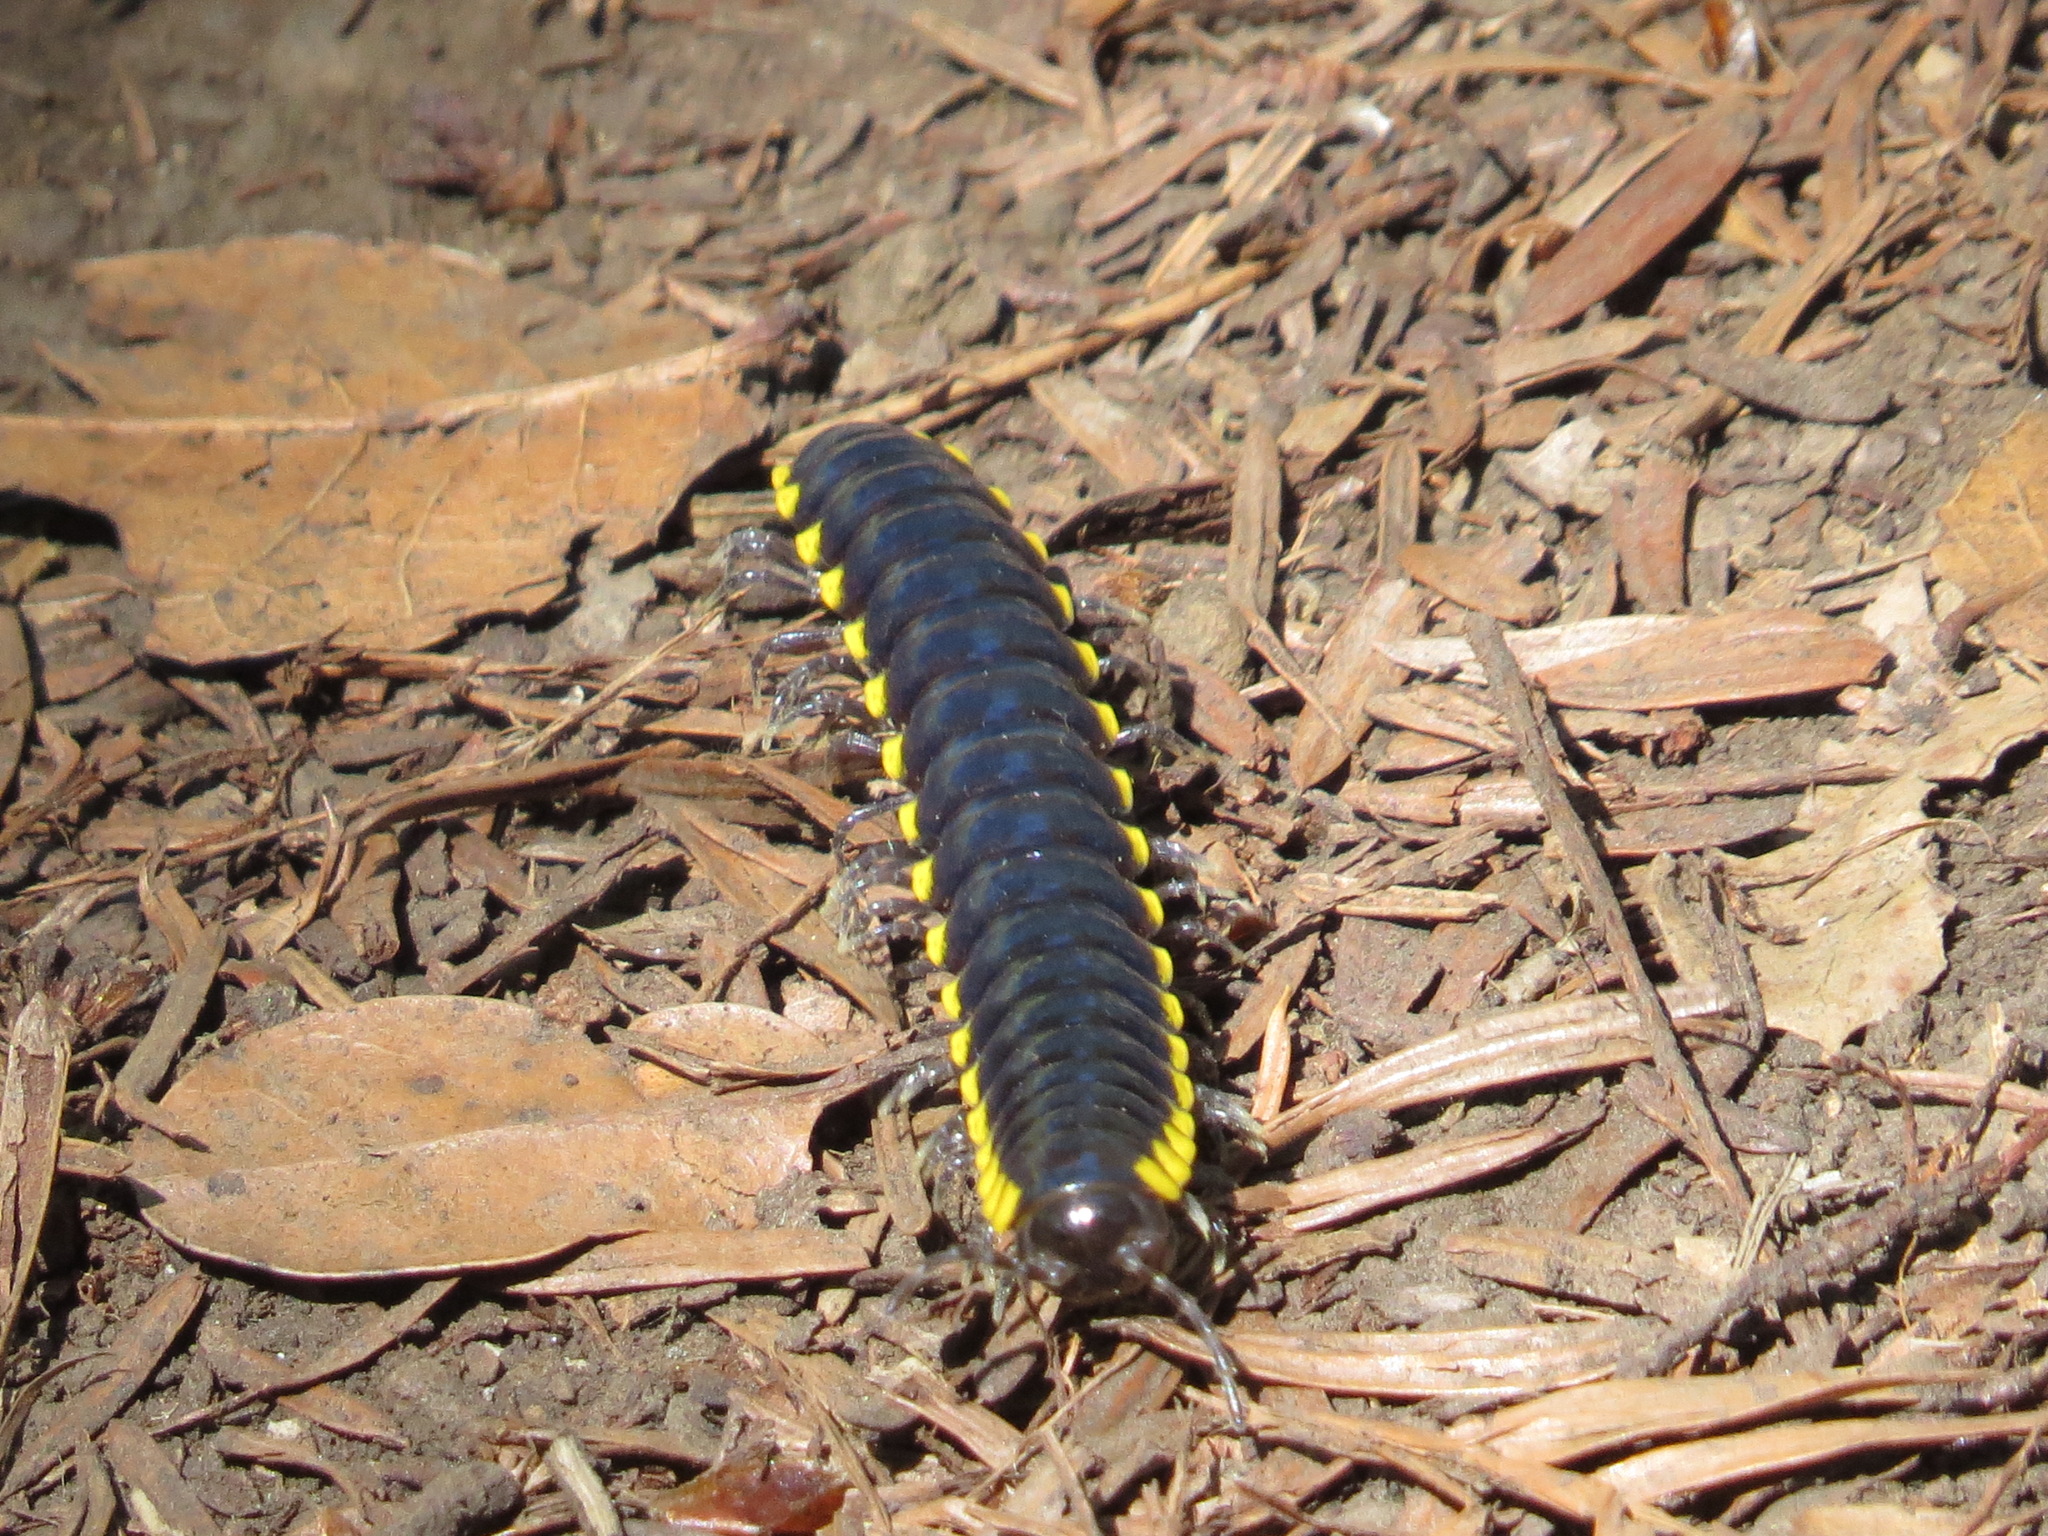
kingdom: Animalia
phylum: Arthropoda
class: Diplopoda
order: Polydesmida
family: Xystodesmidae
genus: Harpaphe
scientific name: Harpaphe haydeniana
